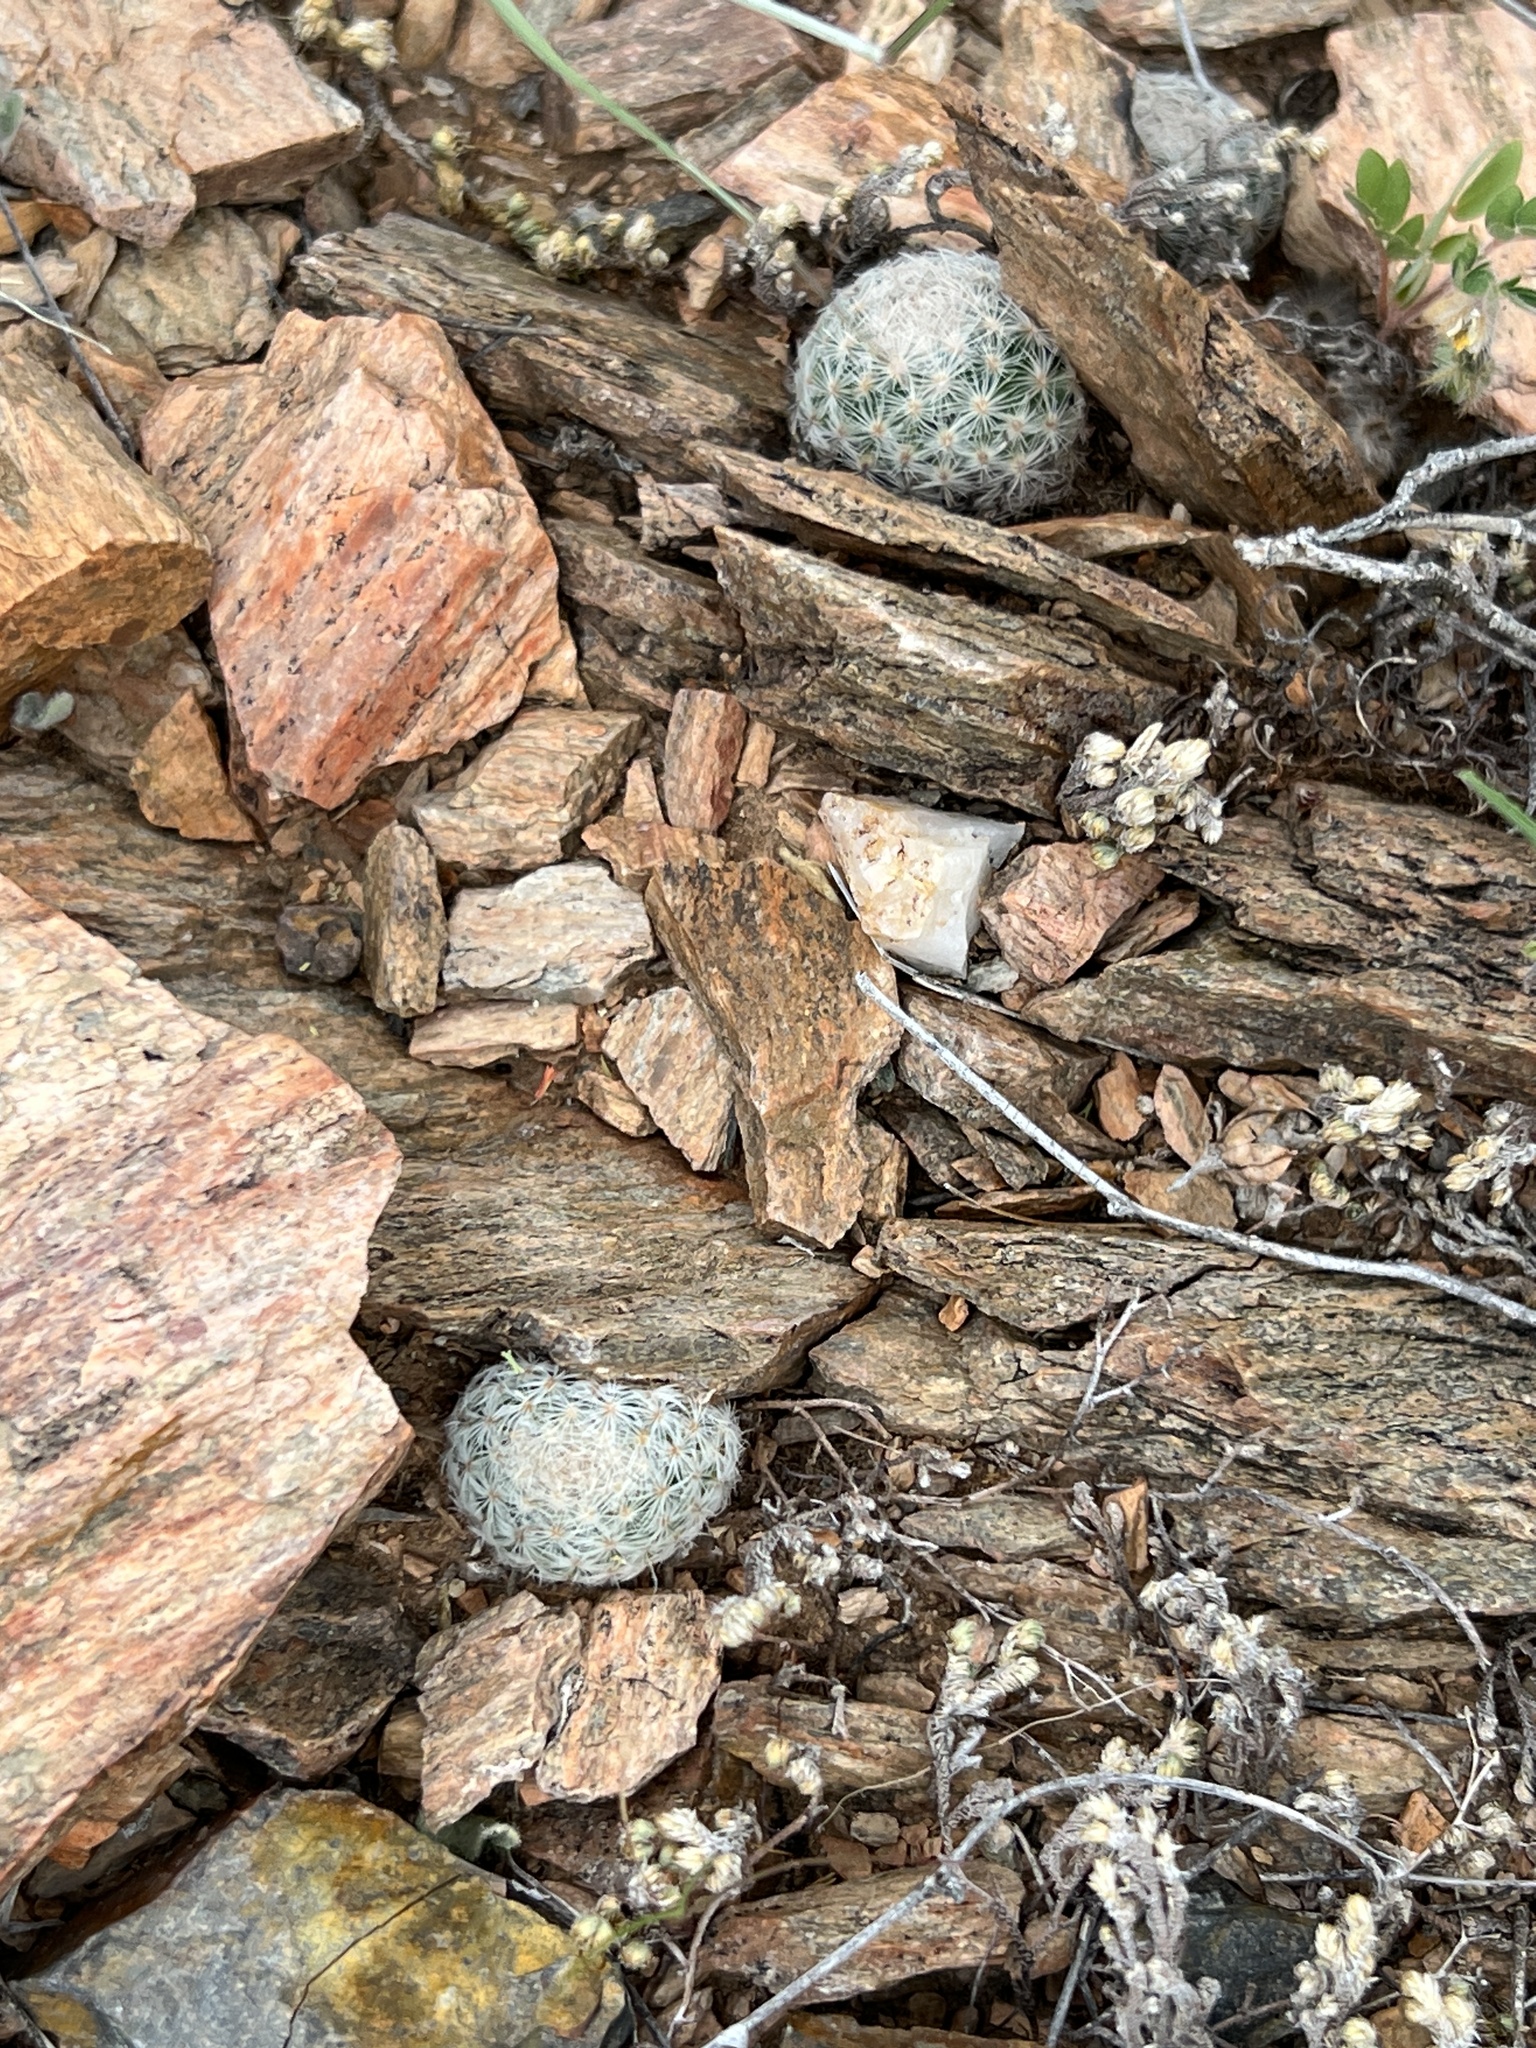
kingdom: Plantae
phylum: Tracheophyta
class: Magnoliopsida
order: Caryophyllales
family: Cactaceae
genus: Mammillaria
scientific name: Mammillaria lasiacantha
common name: Lace-spine nipple cactus
